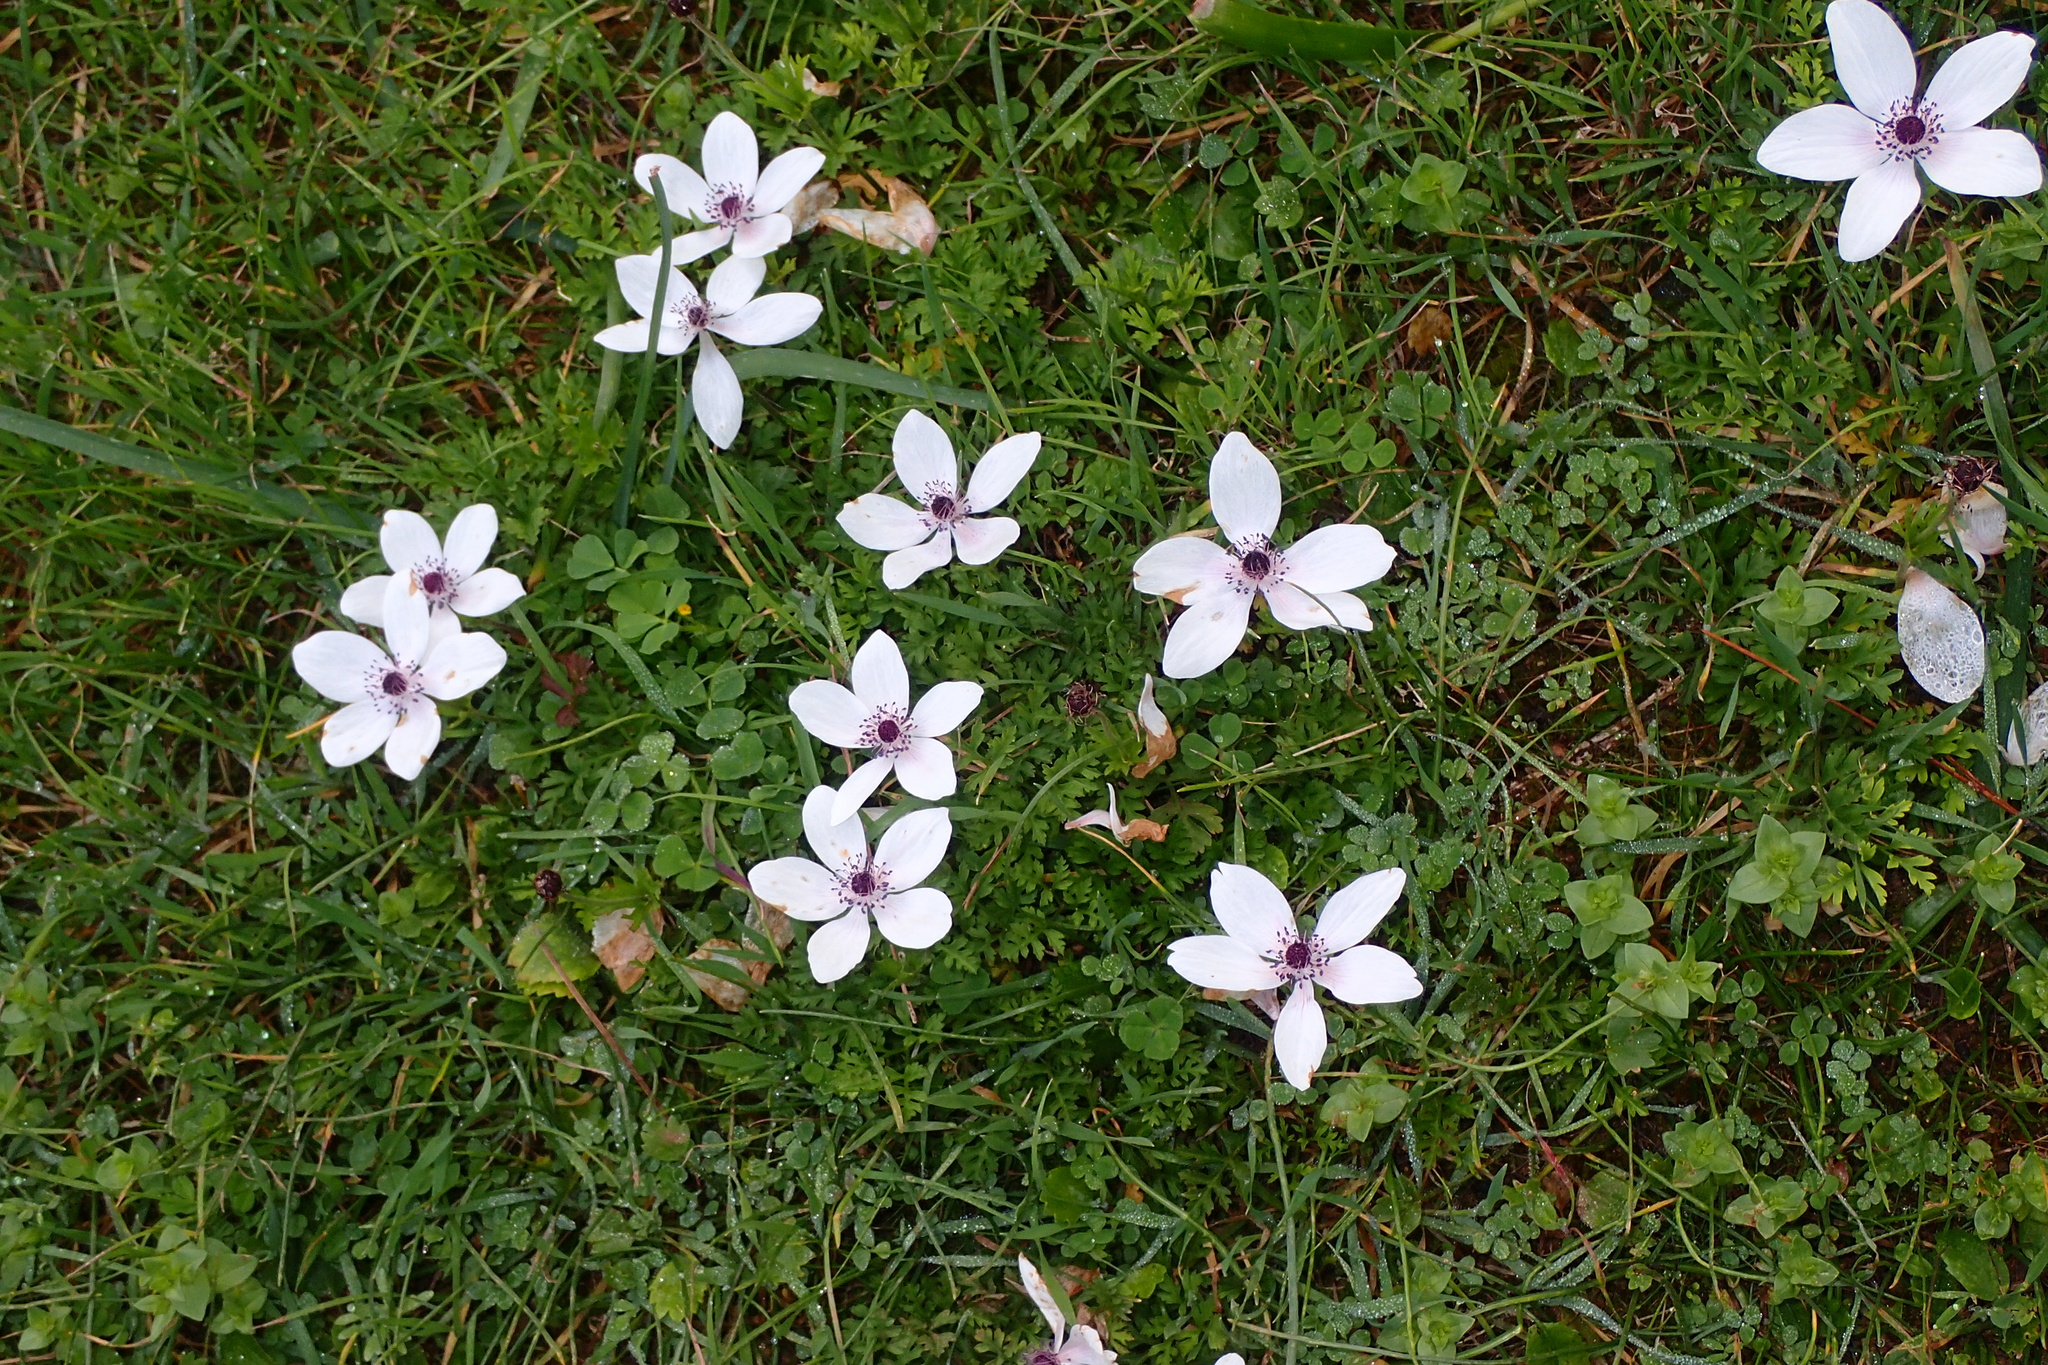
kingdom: Plantae
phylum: Tracheophyta
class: Magnoliopsida
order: Ranunculales
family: Ranunculaceae
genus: Anemone
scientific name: Anemone coronaria
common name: Poppy anemone
